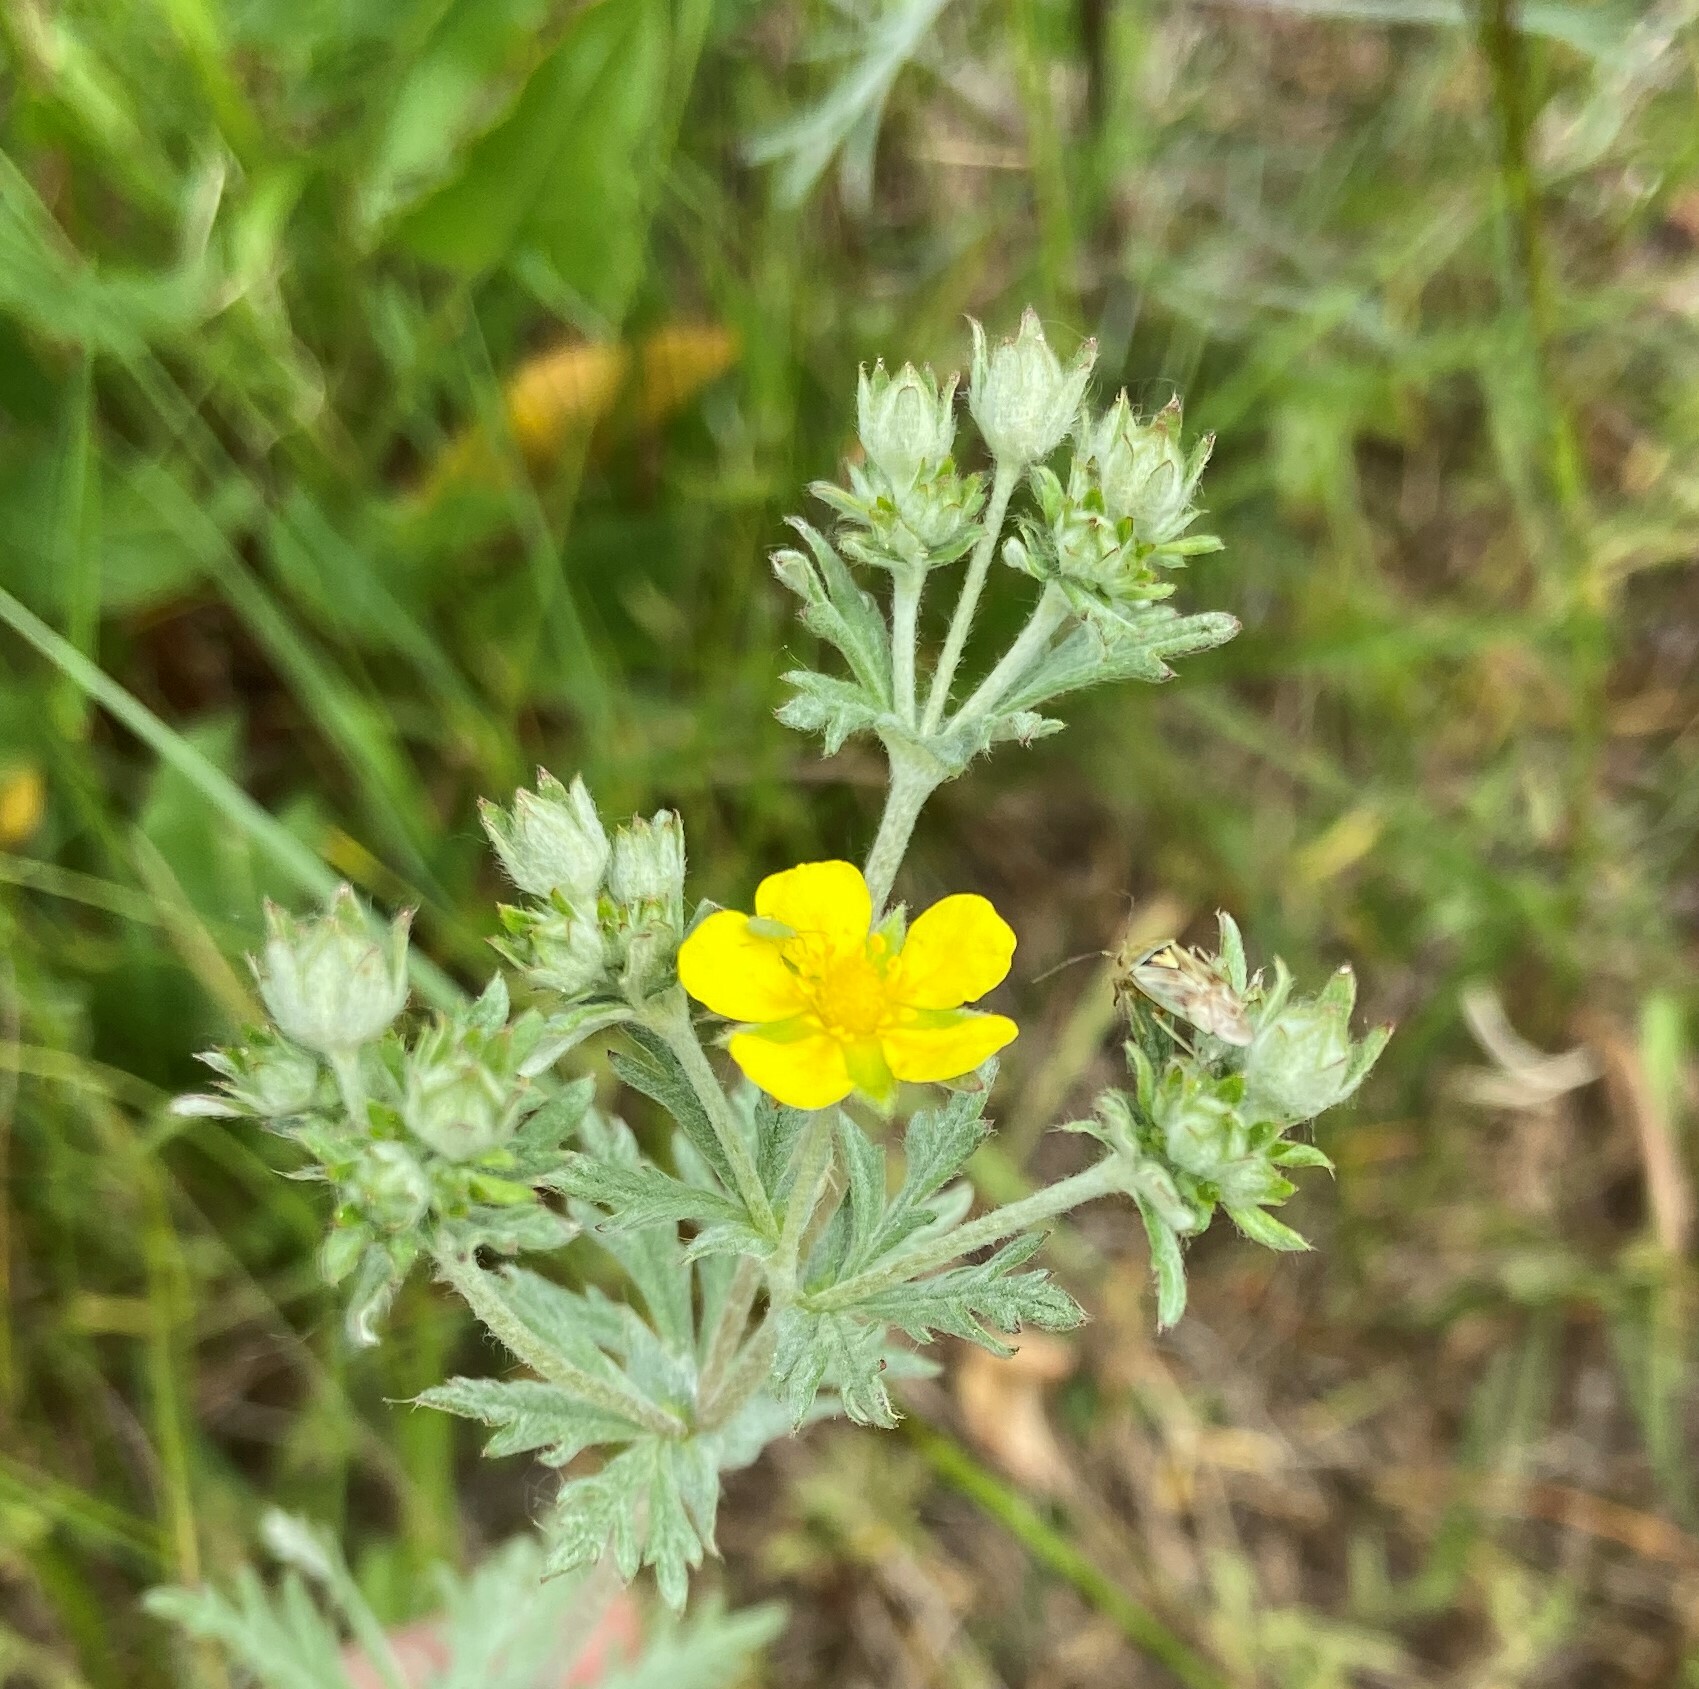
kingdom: Plantae
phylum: Tracheophyta
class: Magnoliopsida
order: Rosales
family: Rosaceae
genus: Potentilla
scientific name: Potentilla argentea
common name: Hoary cinquefoil
